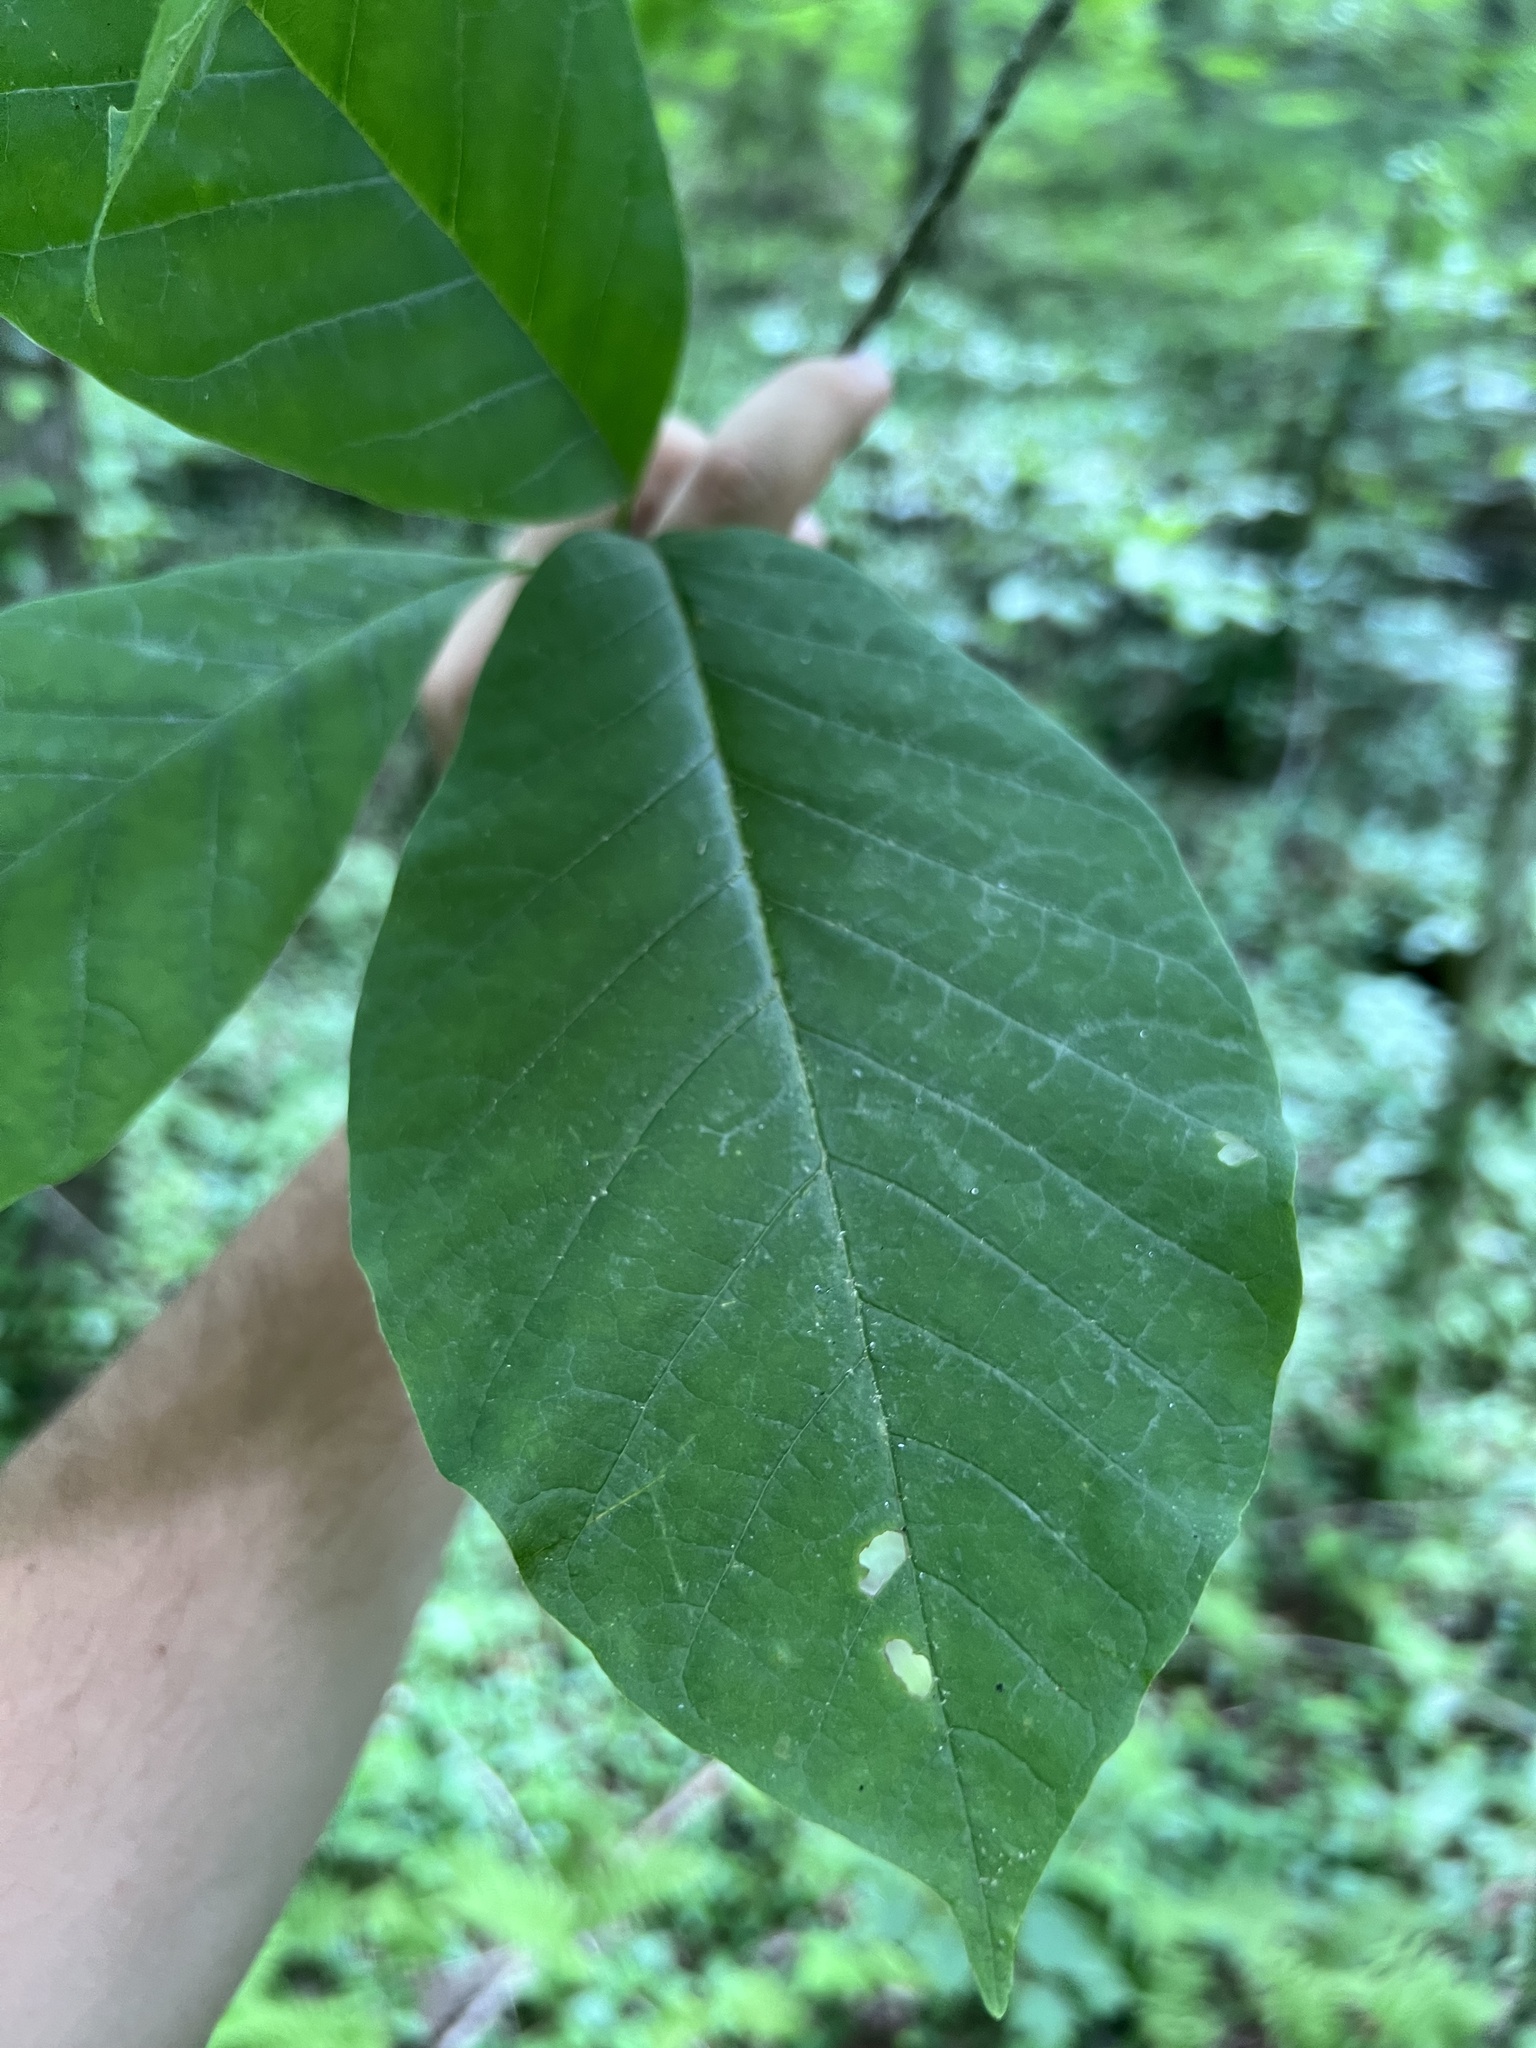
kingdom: Plantae
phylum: Tracheophyta
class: Magnoliopsida
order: Magnoliales
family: Magnoliaceae
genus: Magnolia
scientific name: Magnolia acuminata
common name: Cucumber magnolia
